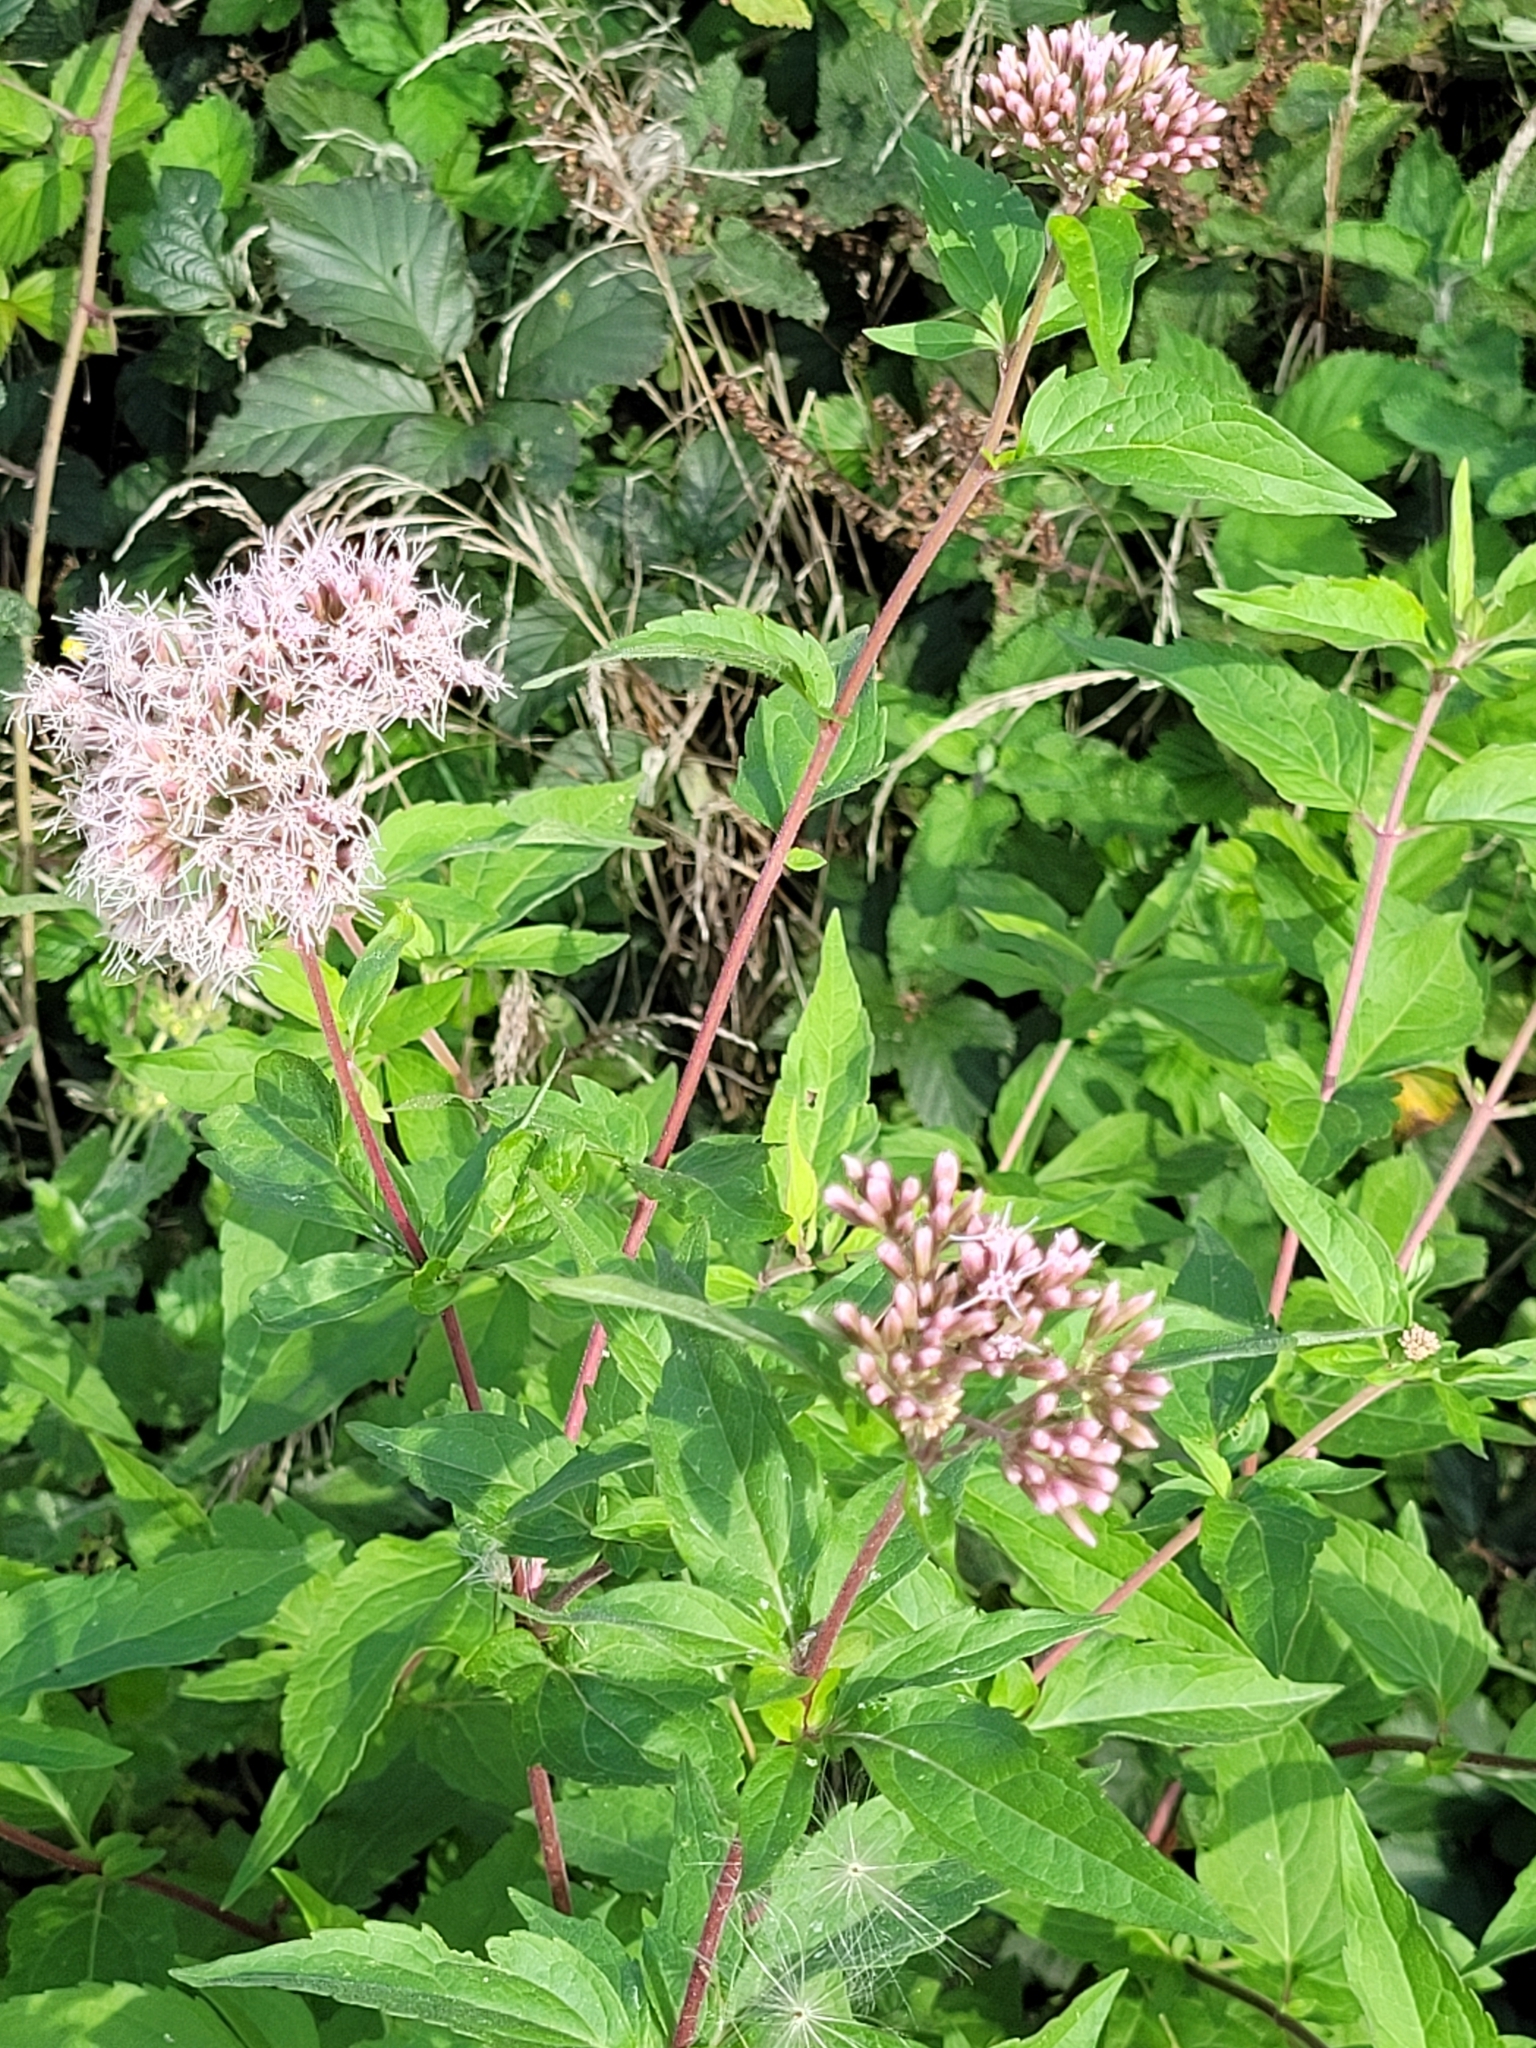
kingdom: Plantae
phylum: Tracheophyta
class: Magnoliopsida
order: Asterales
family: Asteraceae
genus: Eupatorium
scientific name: Eupatorium cannabinum
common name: Hemp-agrimony
